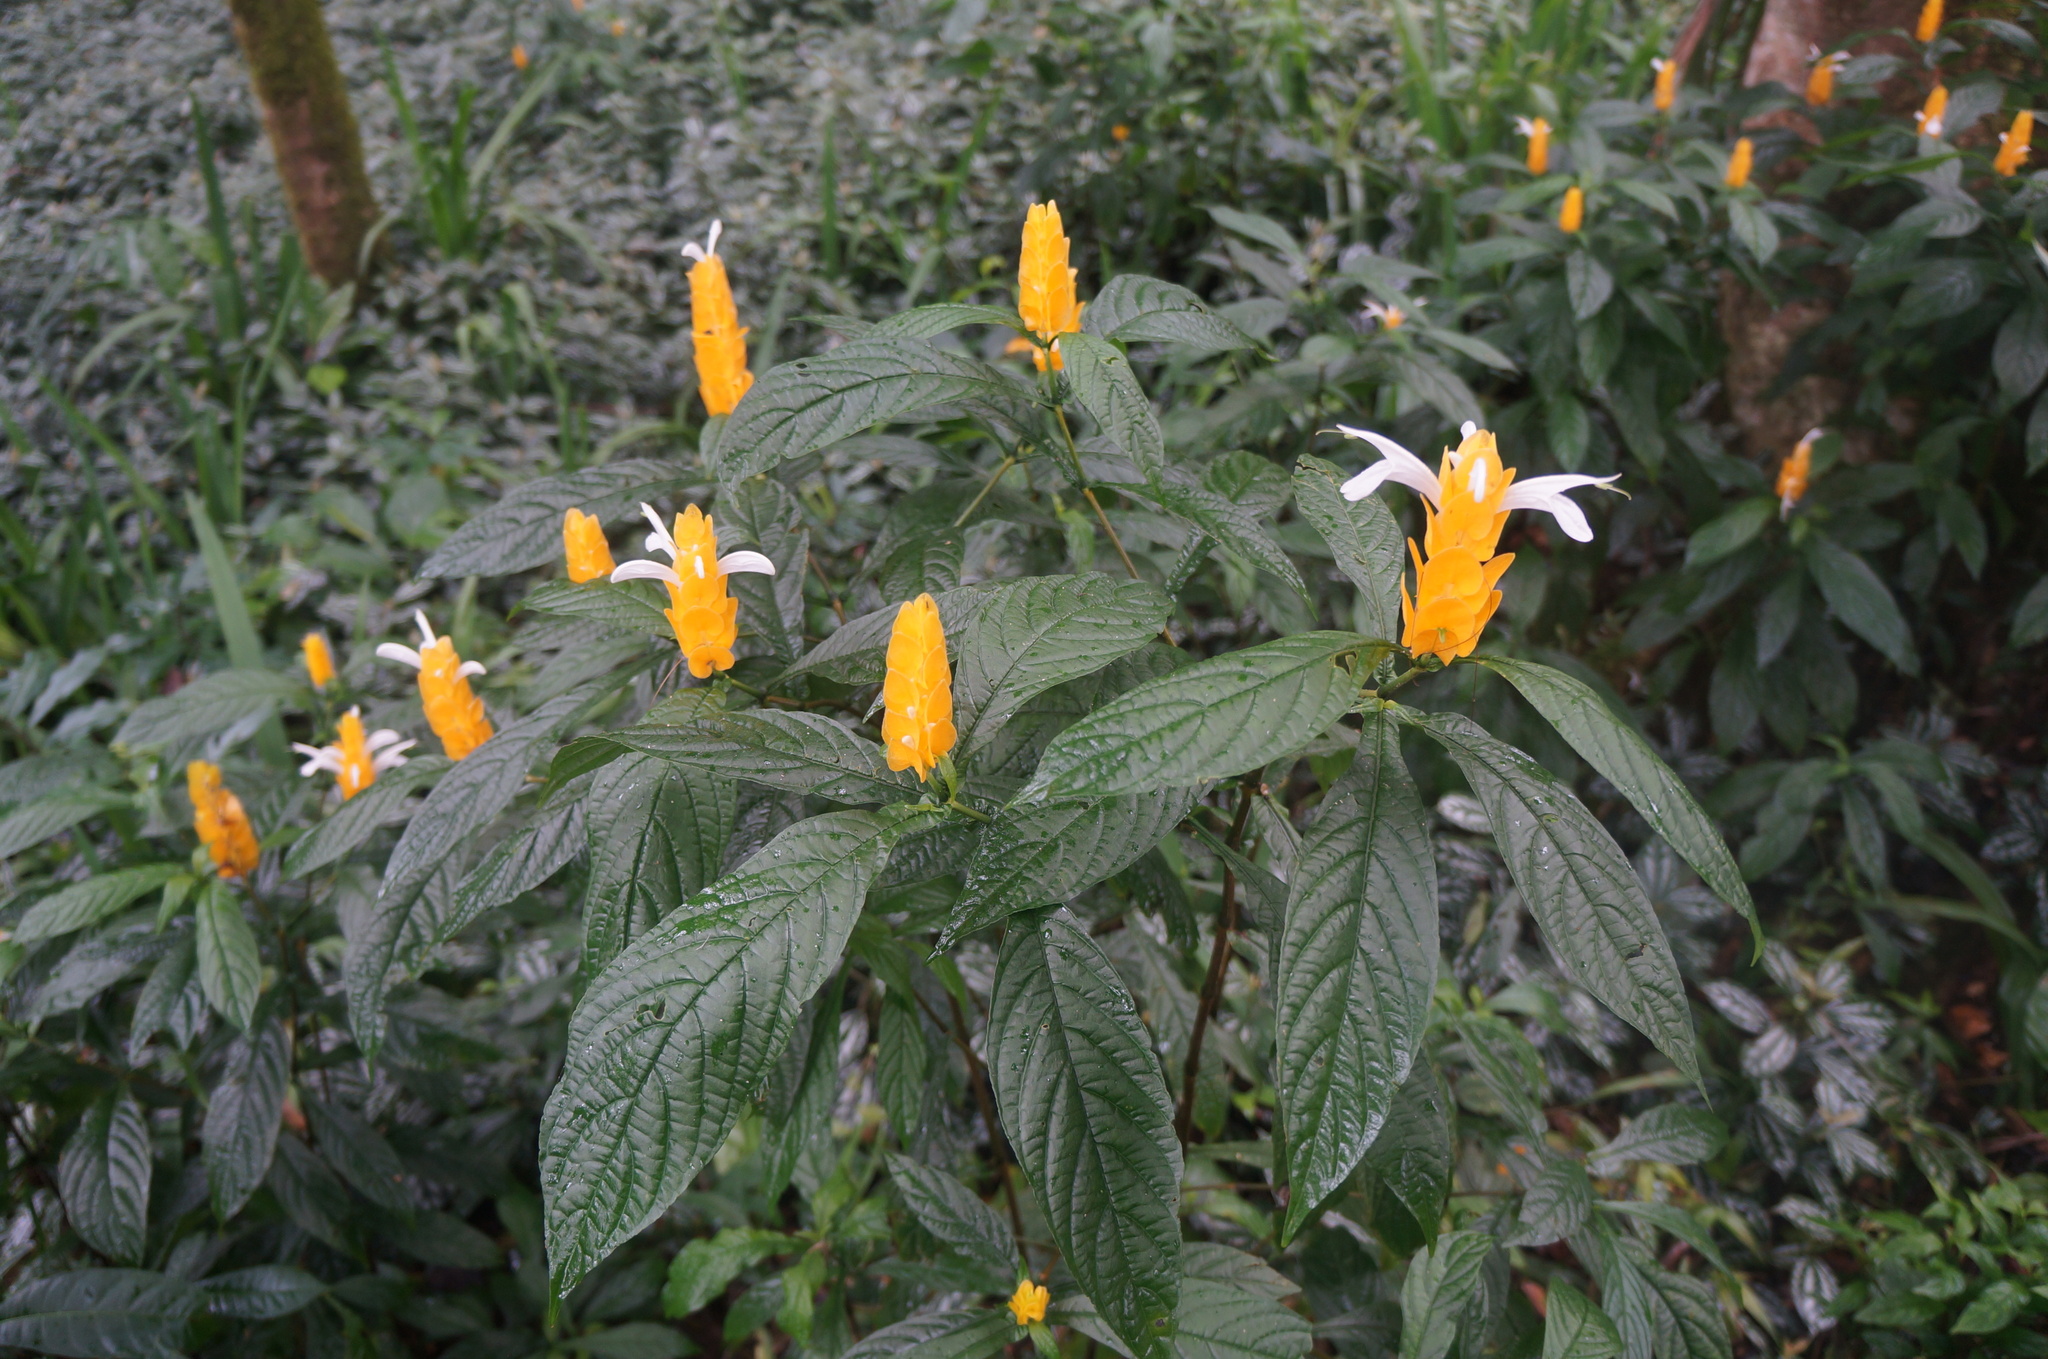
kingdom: Plantae
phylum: Tracheophyta
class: Magnoliopsida
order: Lamiales
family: Acanthaceae
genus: Pachystachys
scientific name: Pachystachys lutea
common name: Golden shrimp-plant
